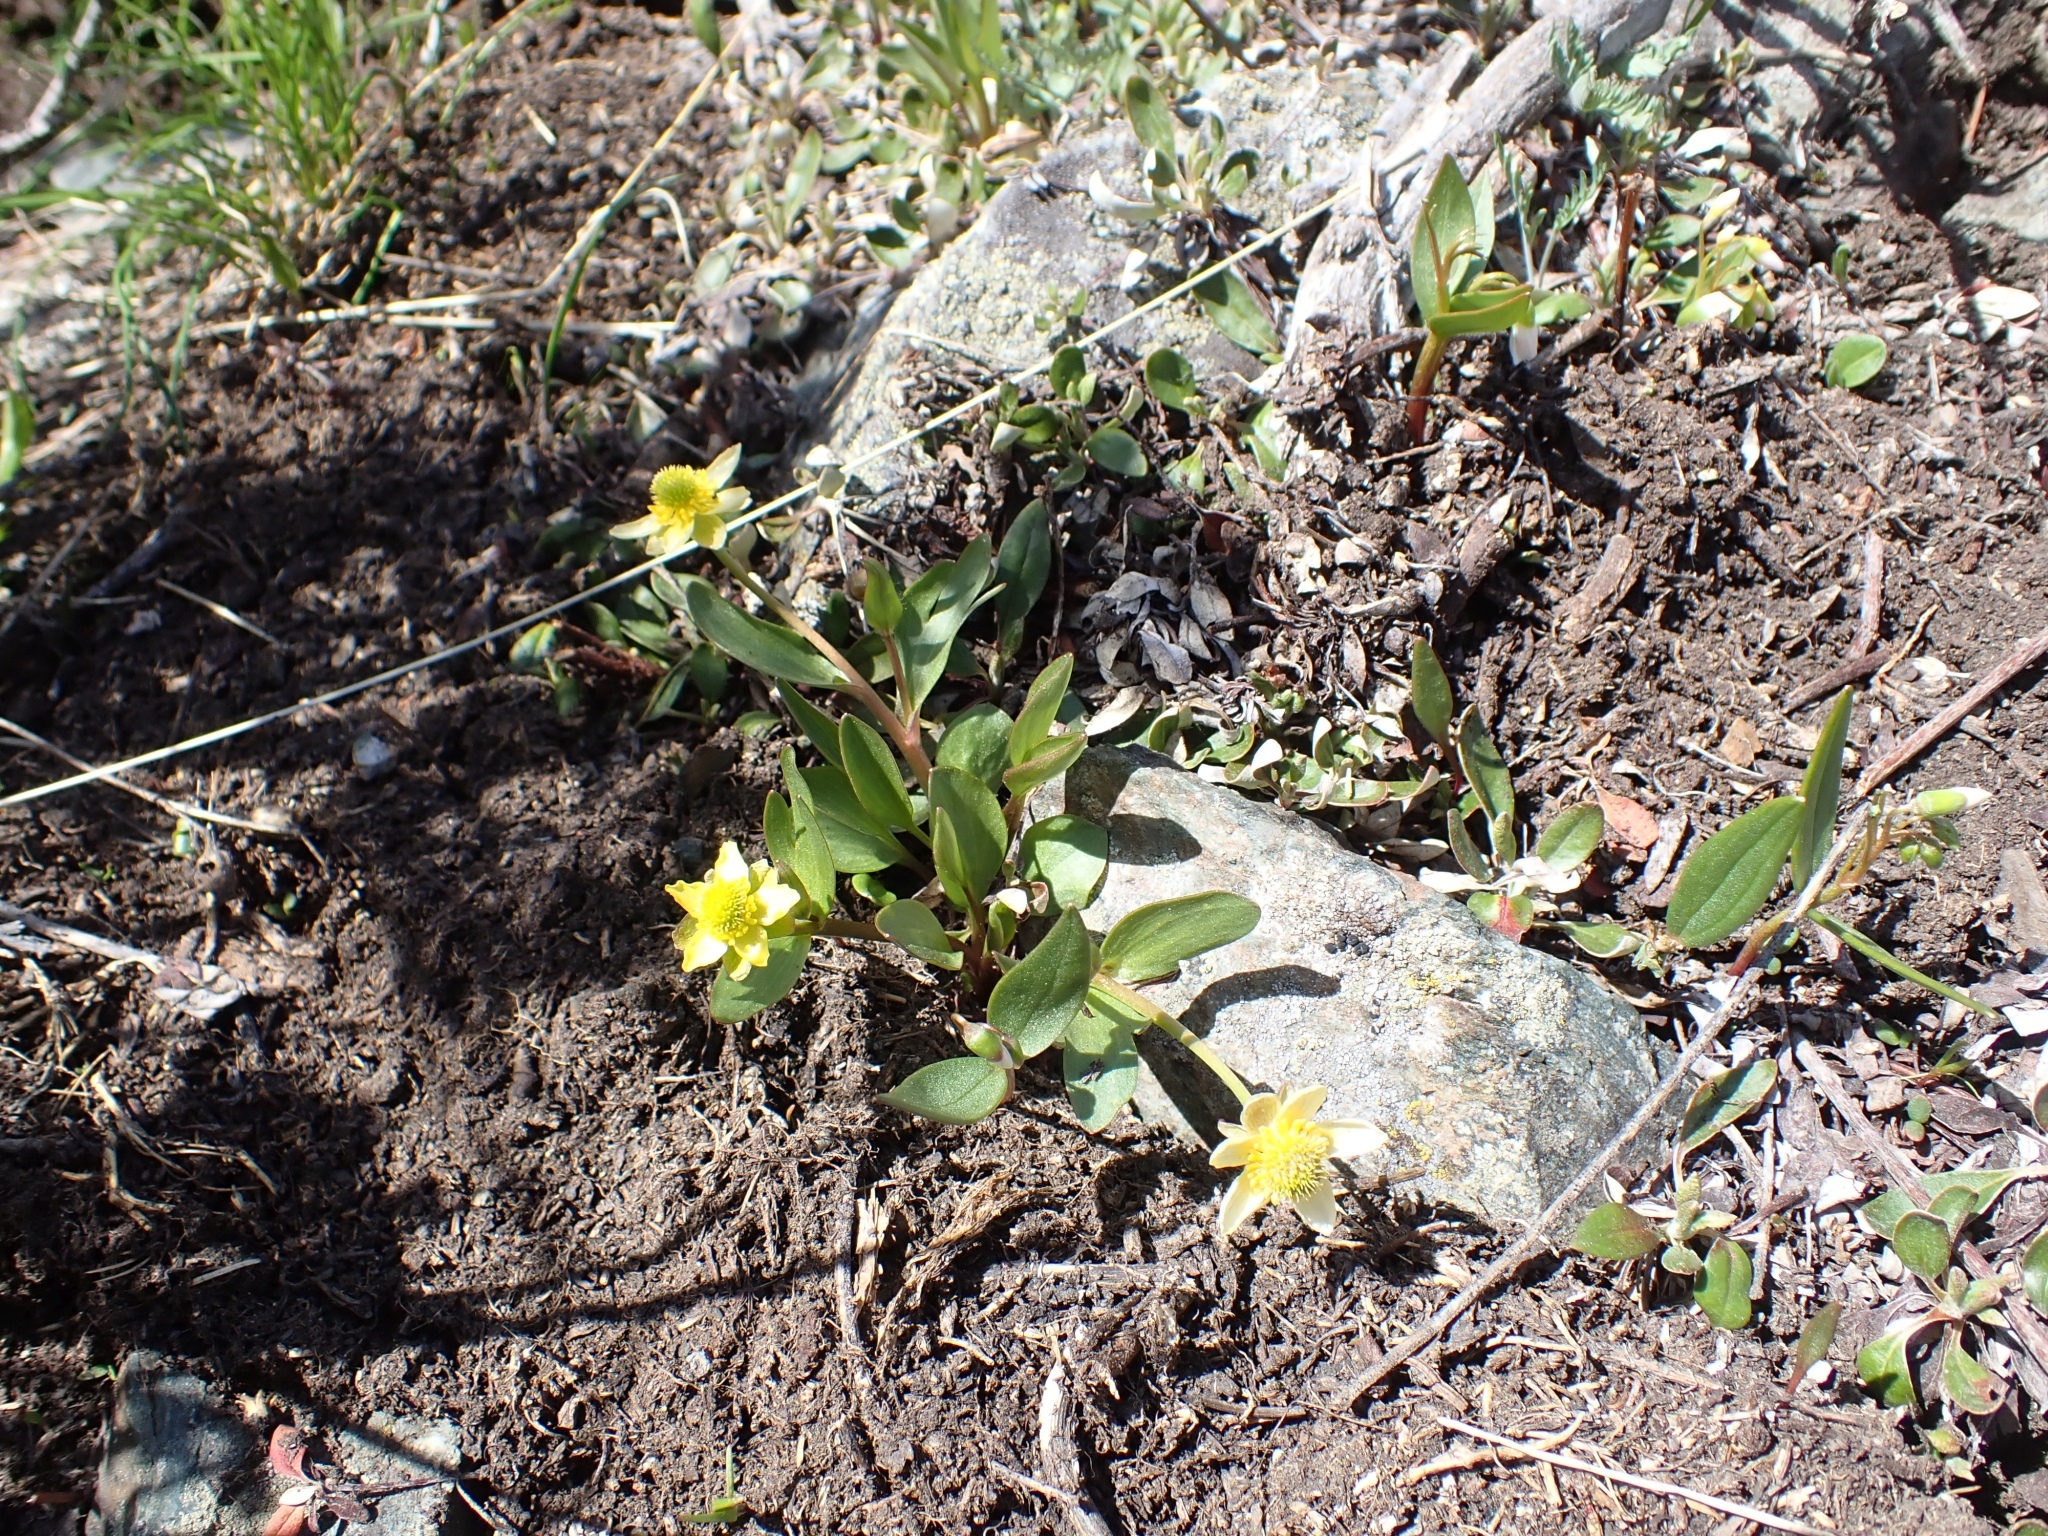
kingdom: Plantae
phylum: Tracheophyta
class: Magnoliopsida
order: Ranunculales
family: Ranunculaceae
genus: Ranunculus
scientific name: Ranunculus glaberrimus
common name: Sagebrush buttercup
